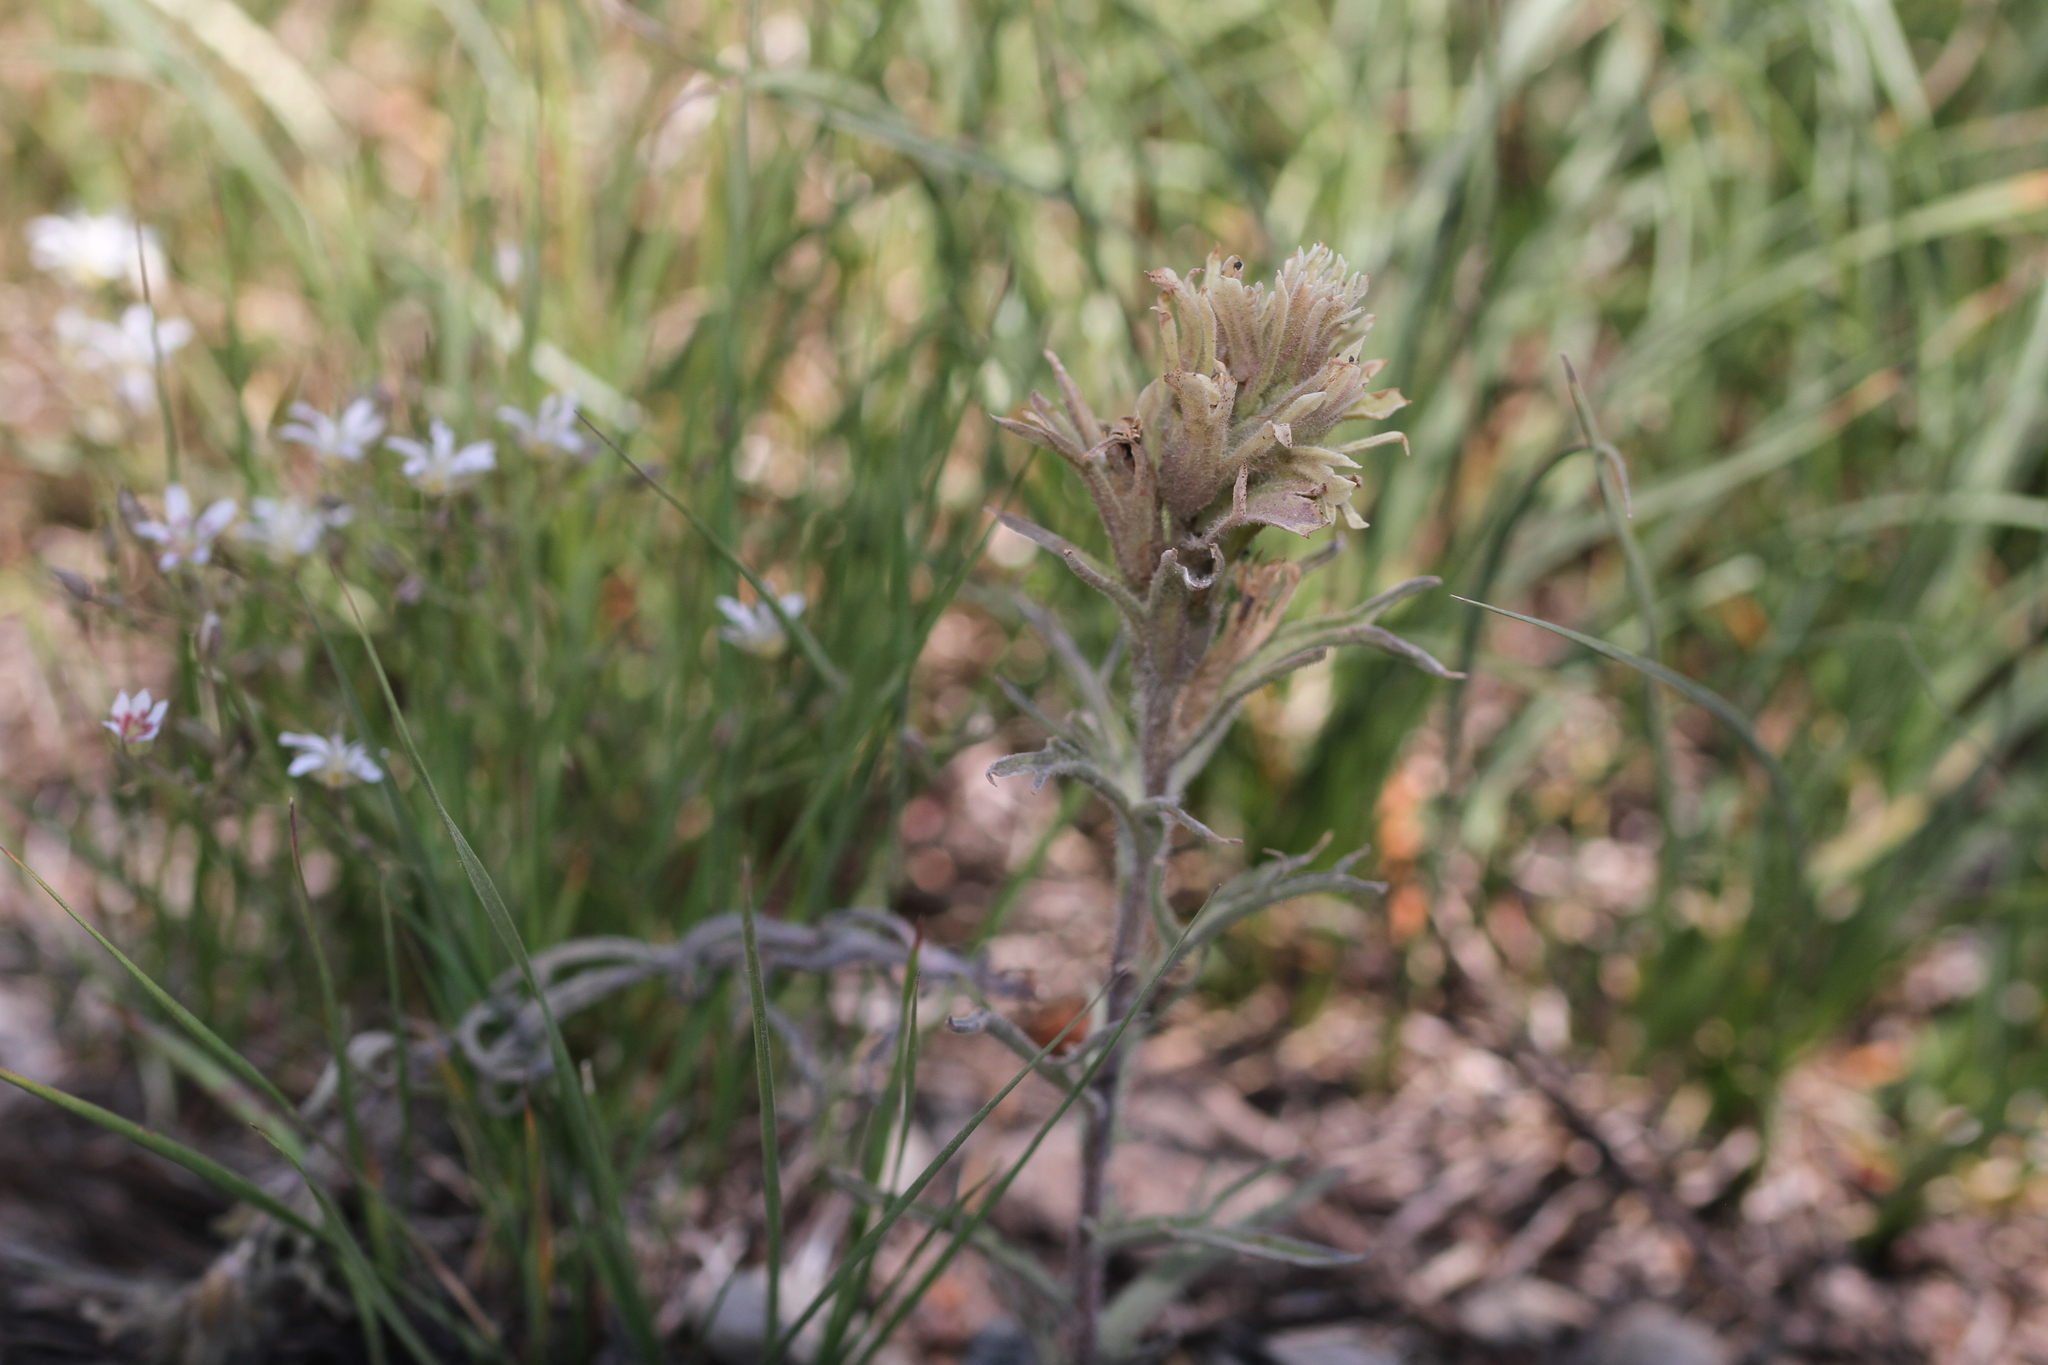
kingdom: Plantae
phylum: Tracheophyta
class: Magnoliopsida
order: Lamiales
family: Orobanchaceae
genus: Castilleja
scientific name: Castilleja nana
